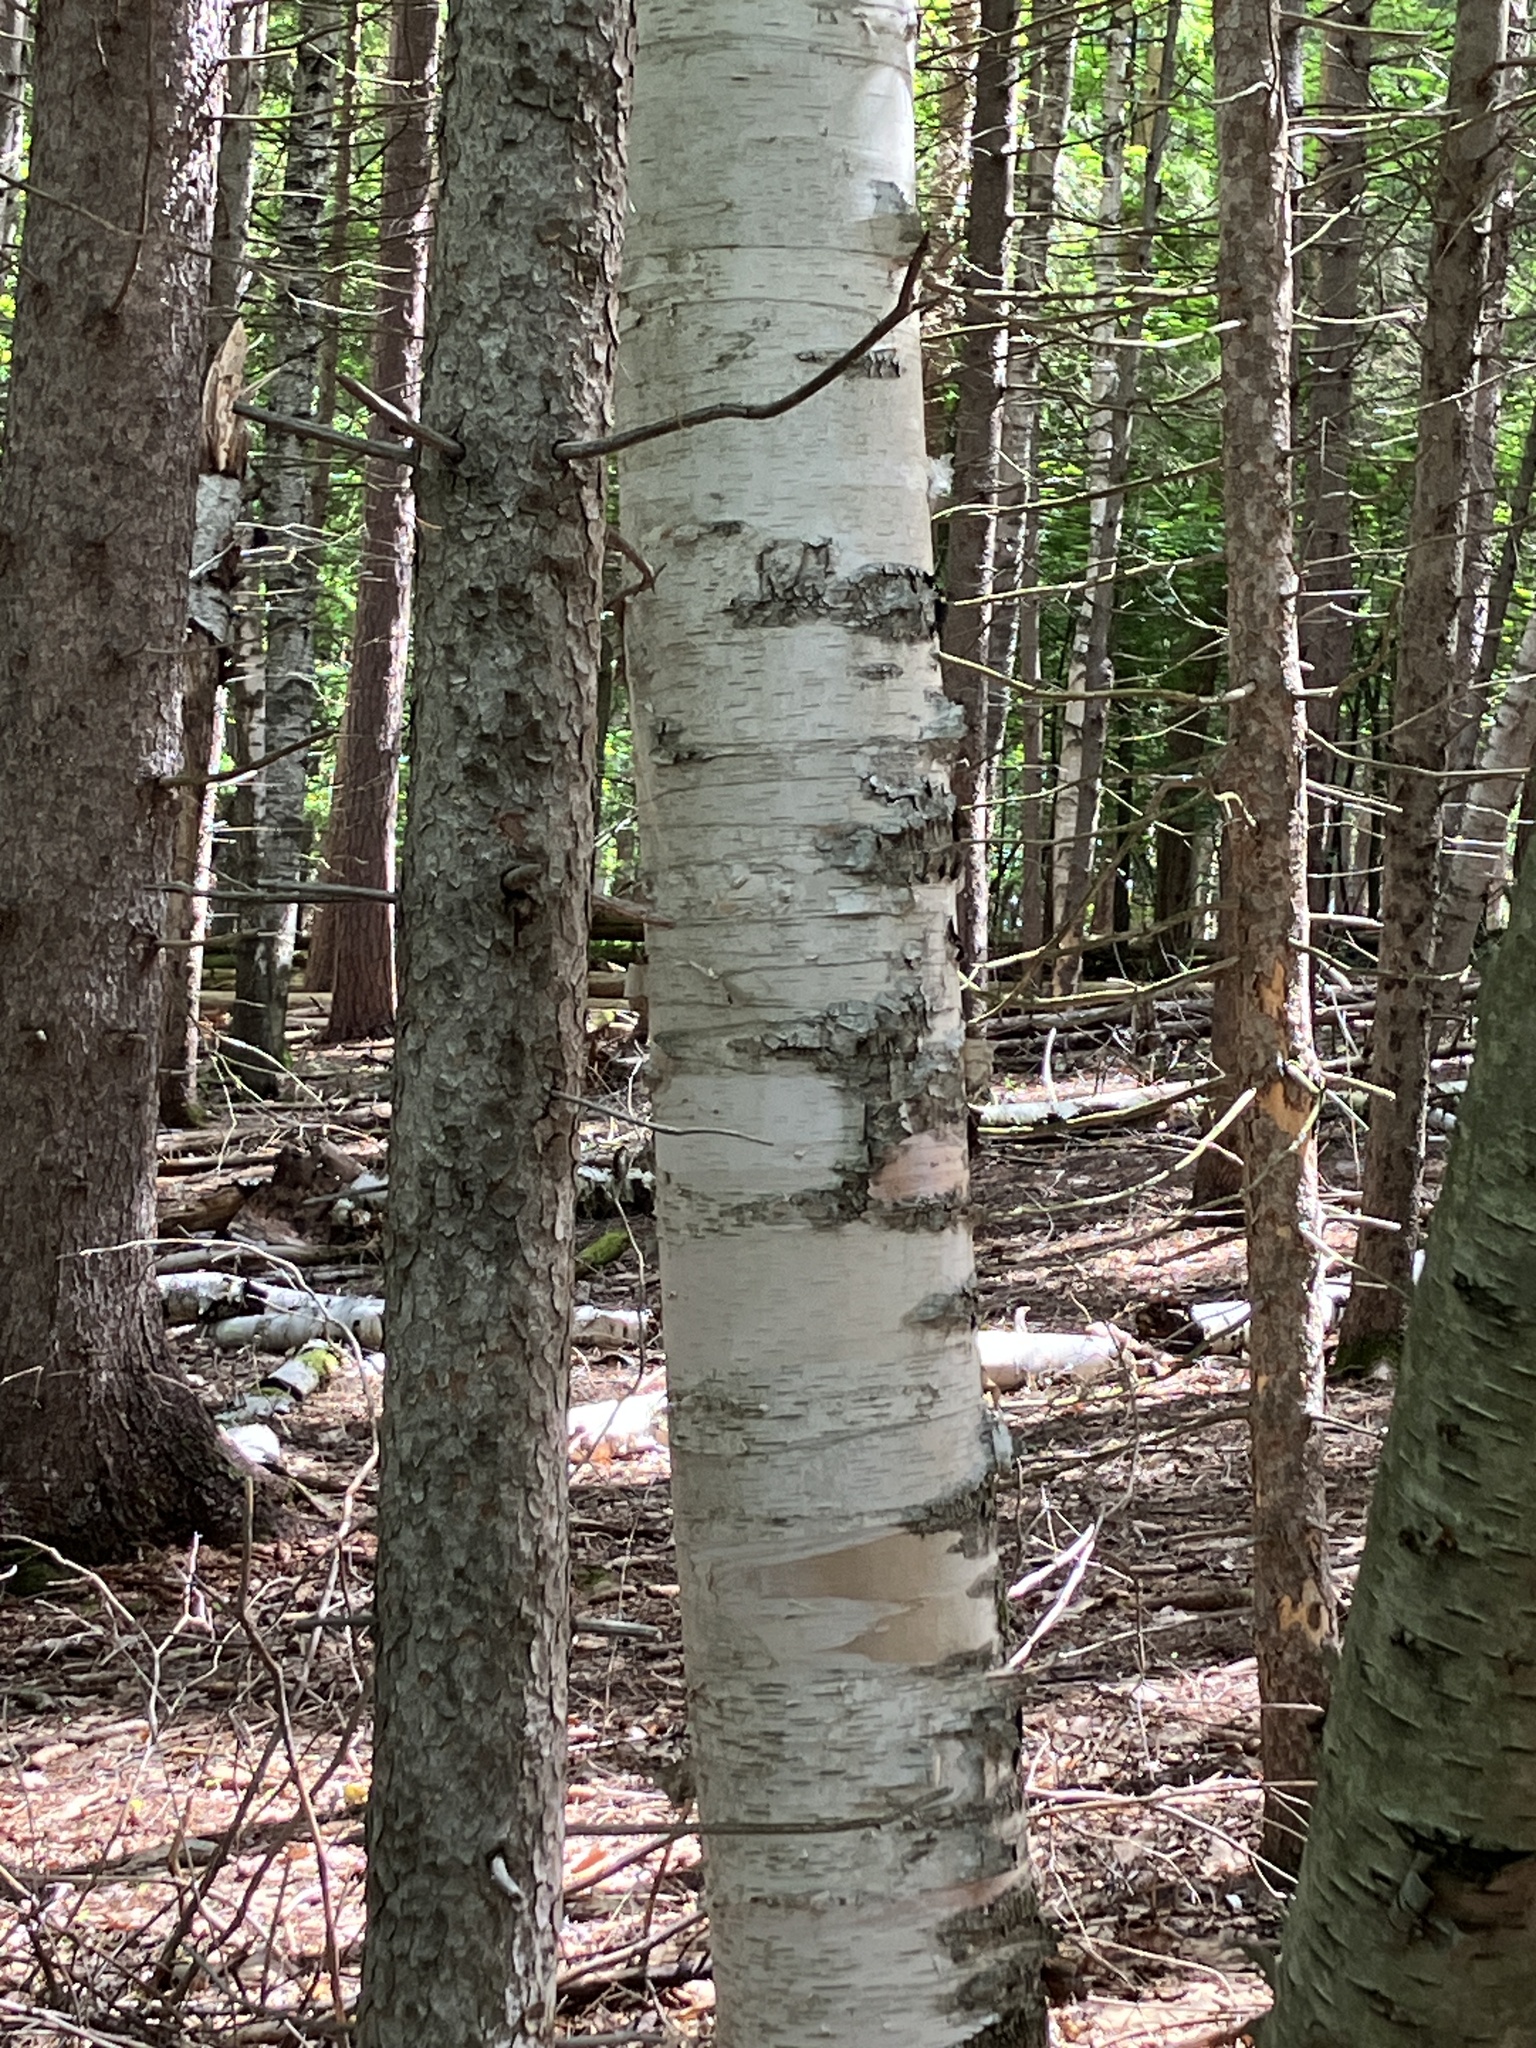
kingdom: Plantae
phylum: Tracheophyta
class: Magnoliopsida
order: Fagales
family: Betulaceae
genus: Betula
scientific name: Betula papyrifera
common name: Paper birch
